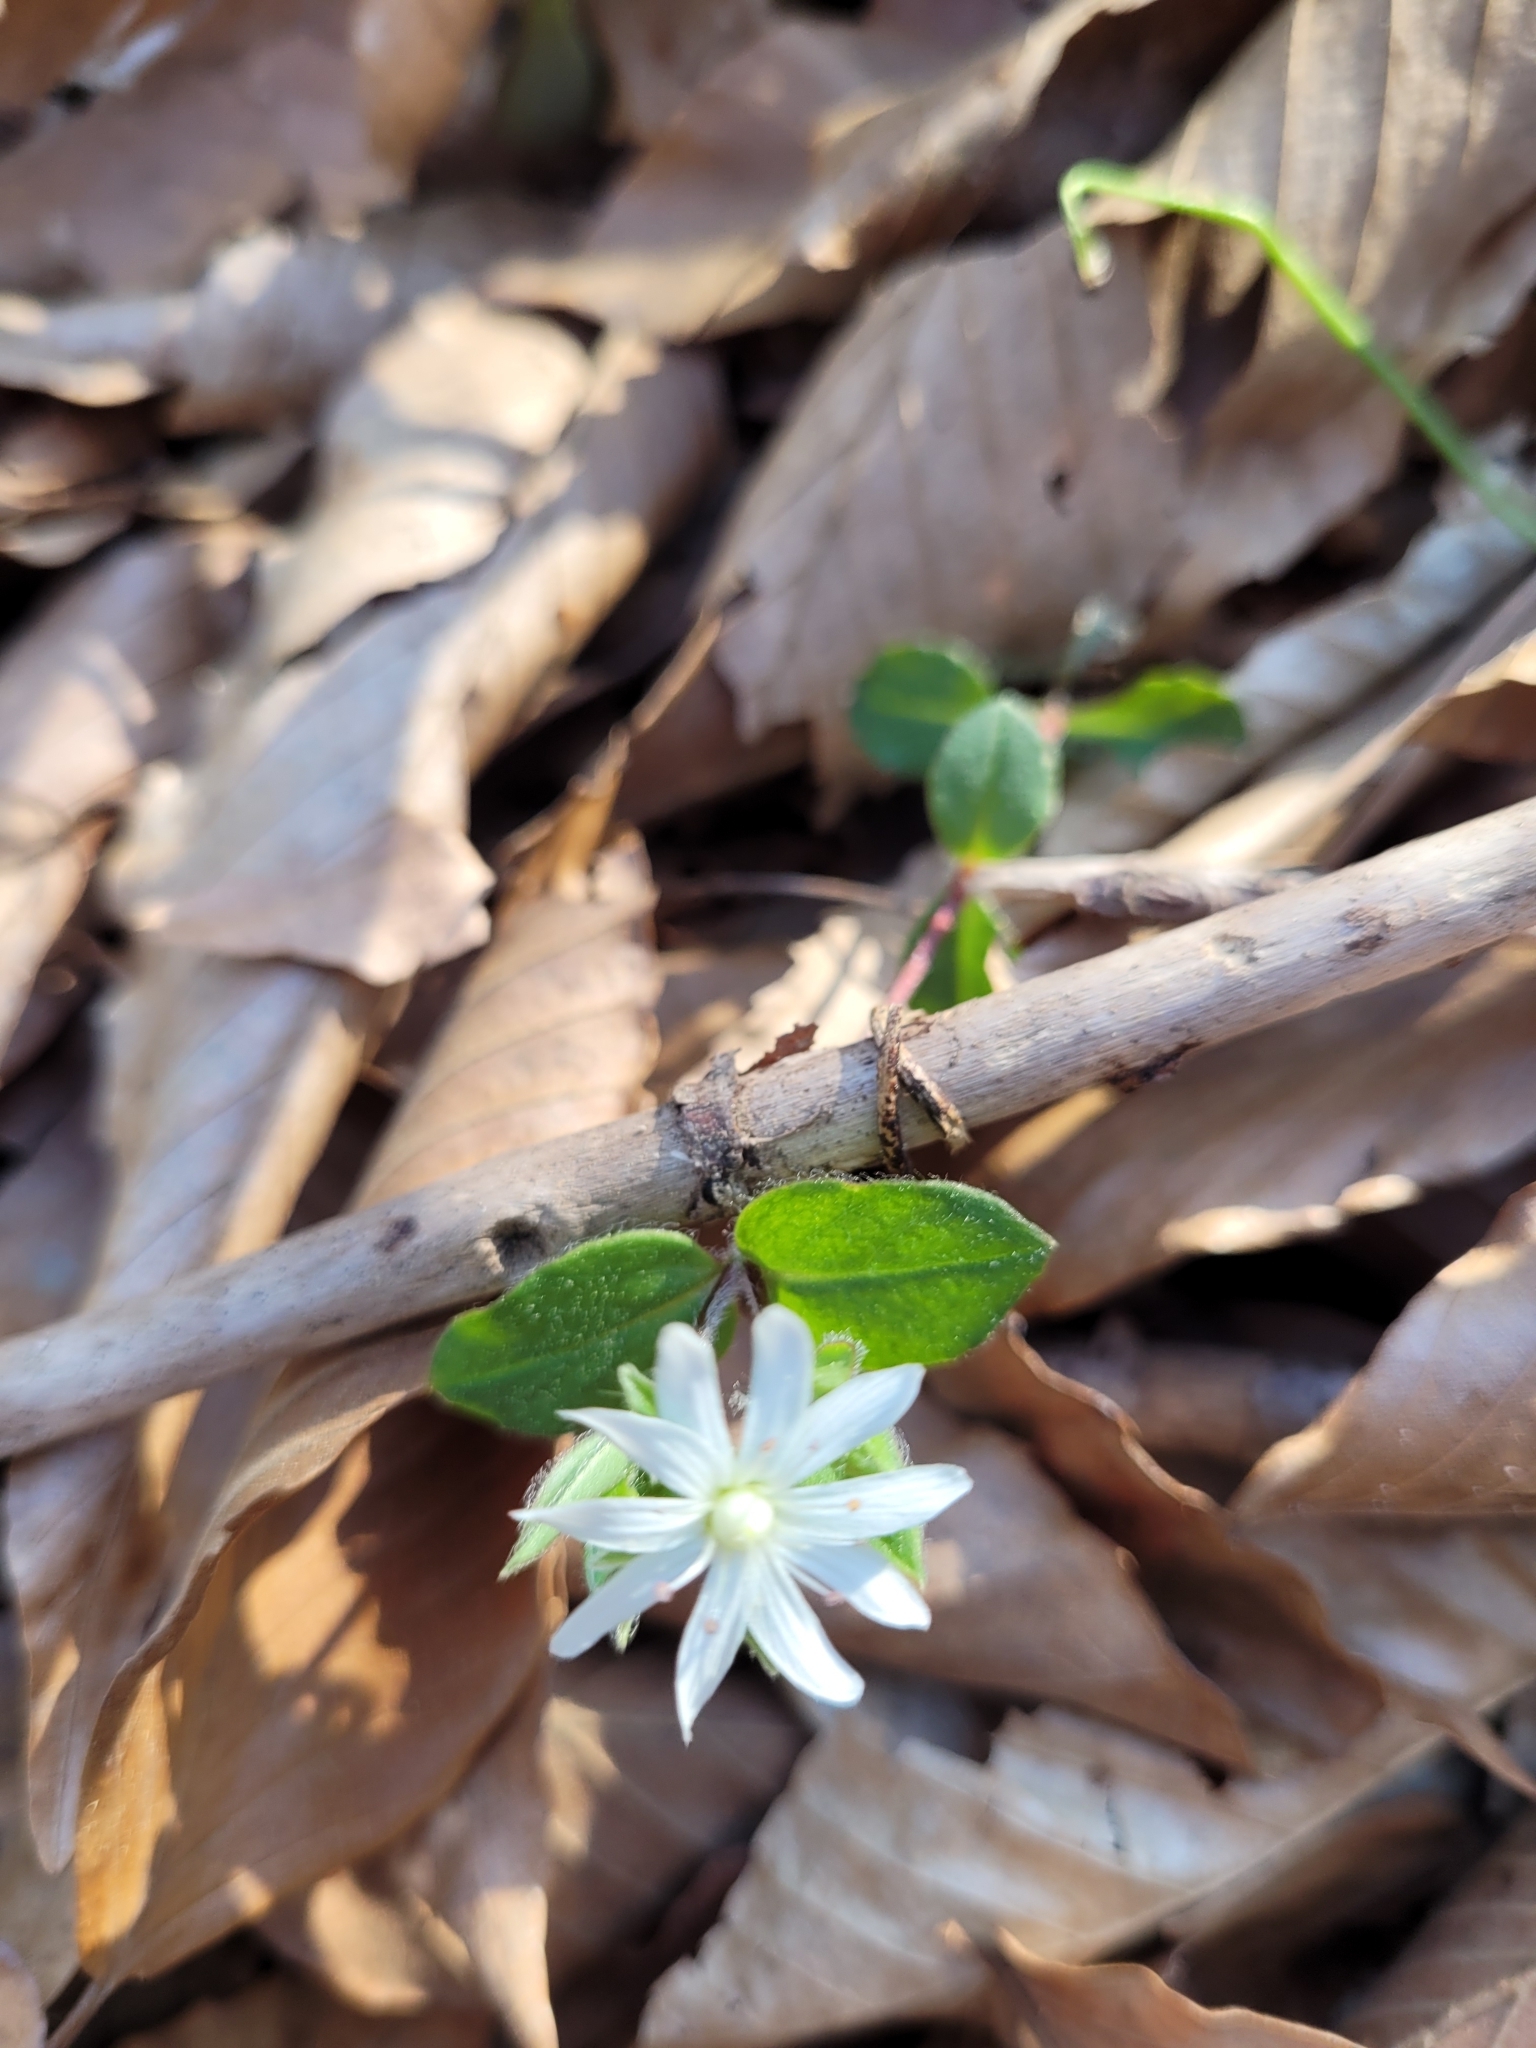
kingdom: Plantae
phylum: Tracheophyta
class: Magnoliopsida
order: Caryophyllales
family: Caryophyllaceae
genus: Stellaria
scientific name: Stellaria pubera
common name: Star chickweed
